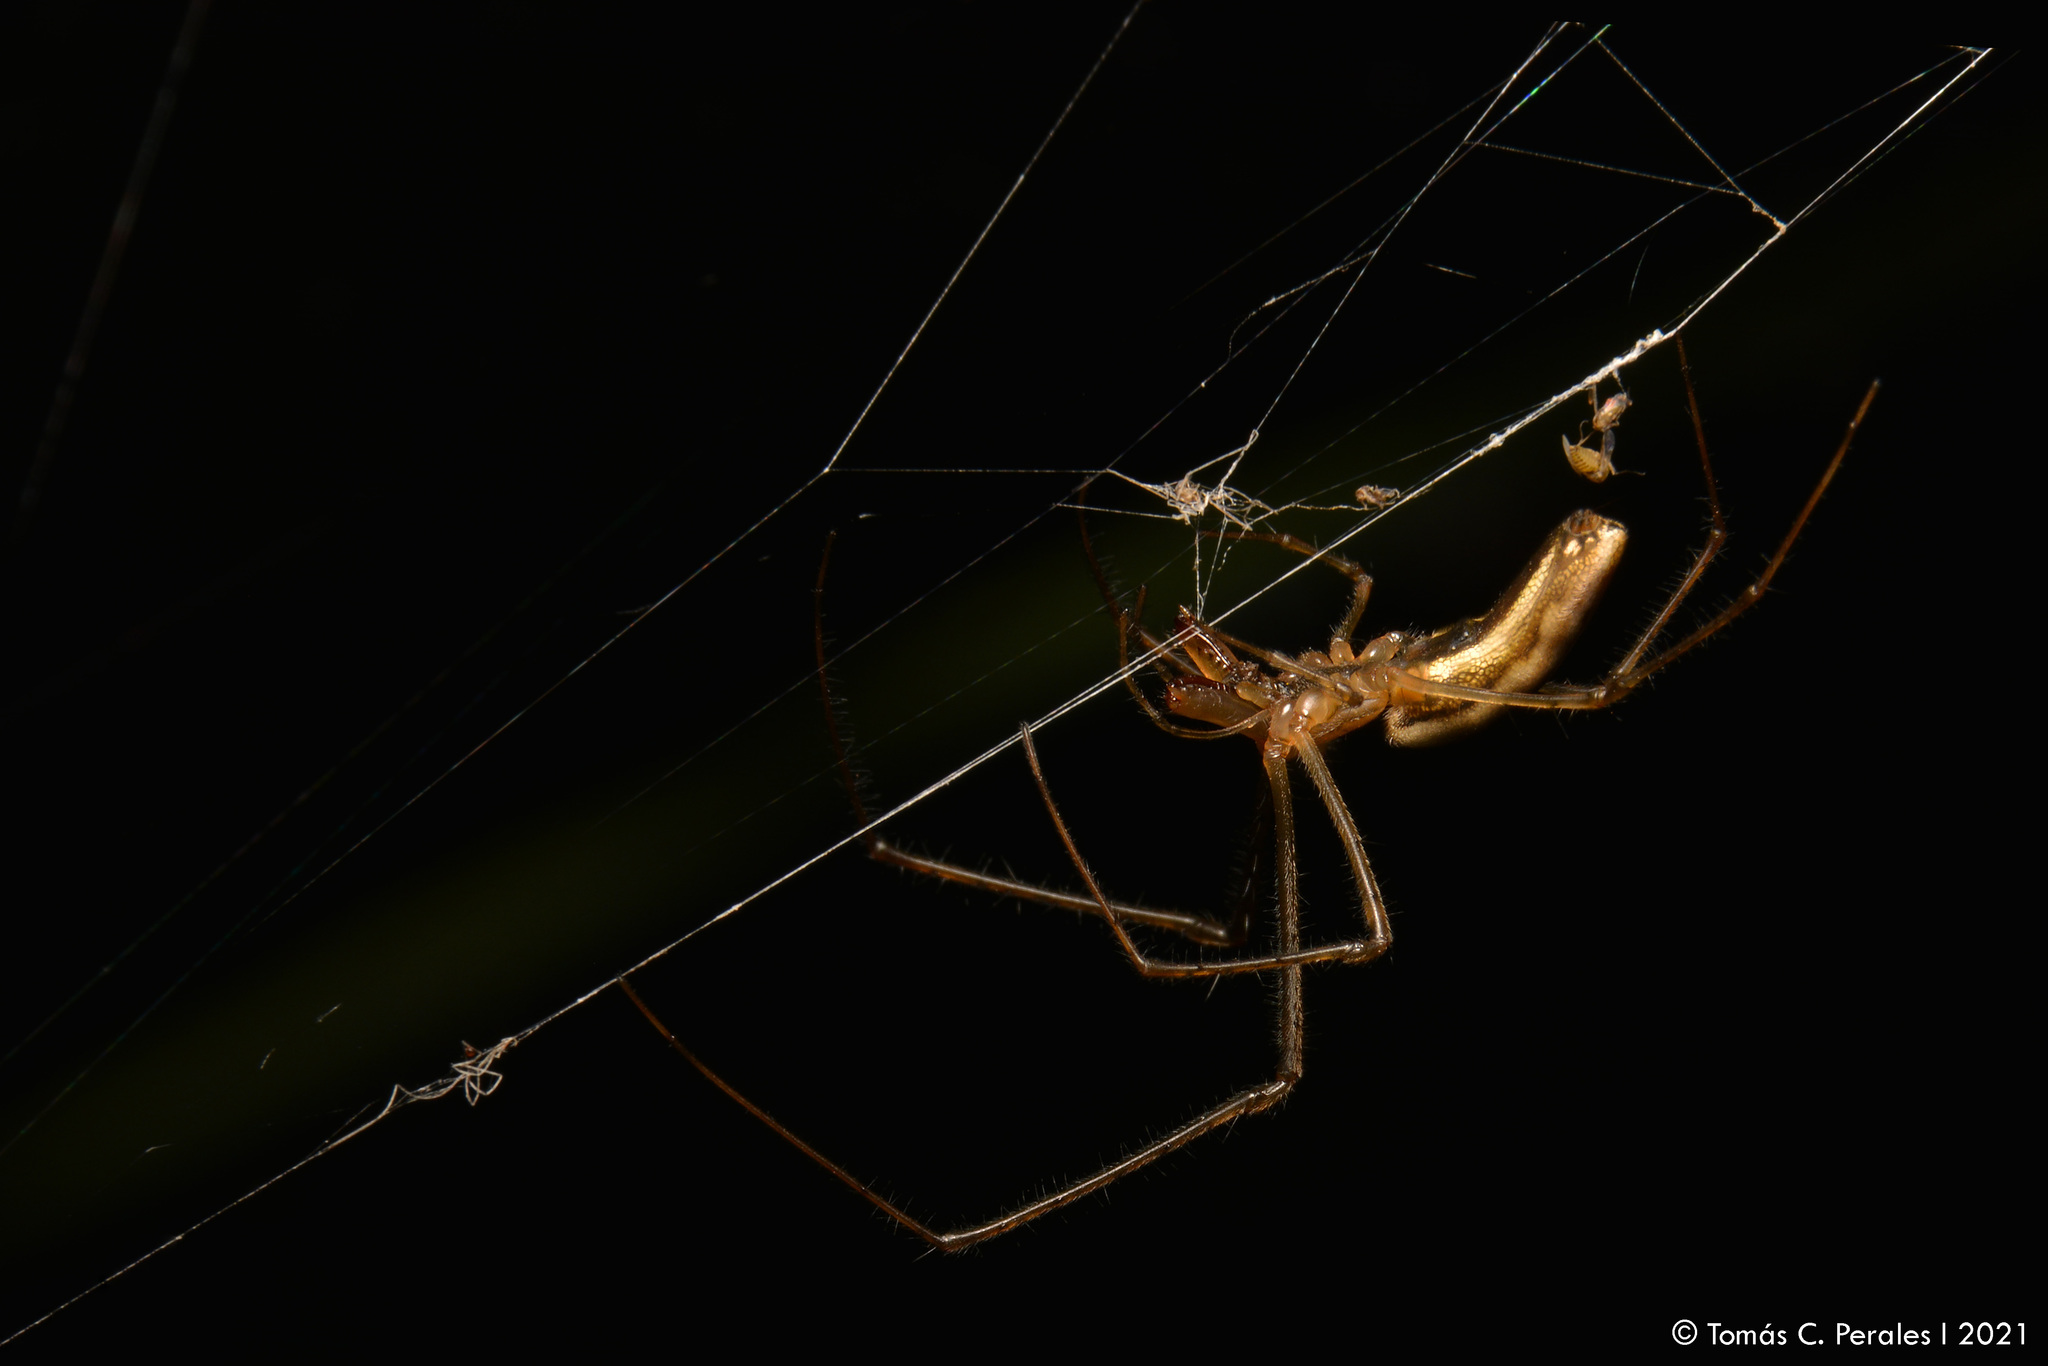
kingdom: Animalia
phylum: Arthropoda
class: Arachnida
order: Araneae
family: Tetragnathidae
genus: Tetragnatha
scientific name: Tetragnatha
